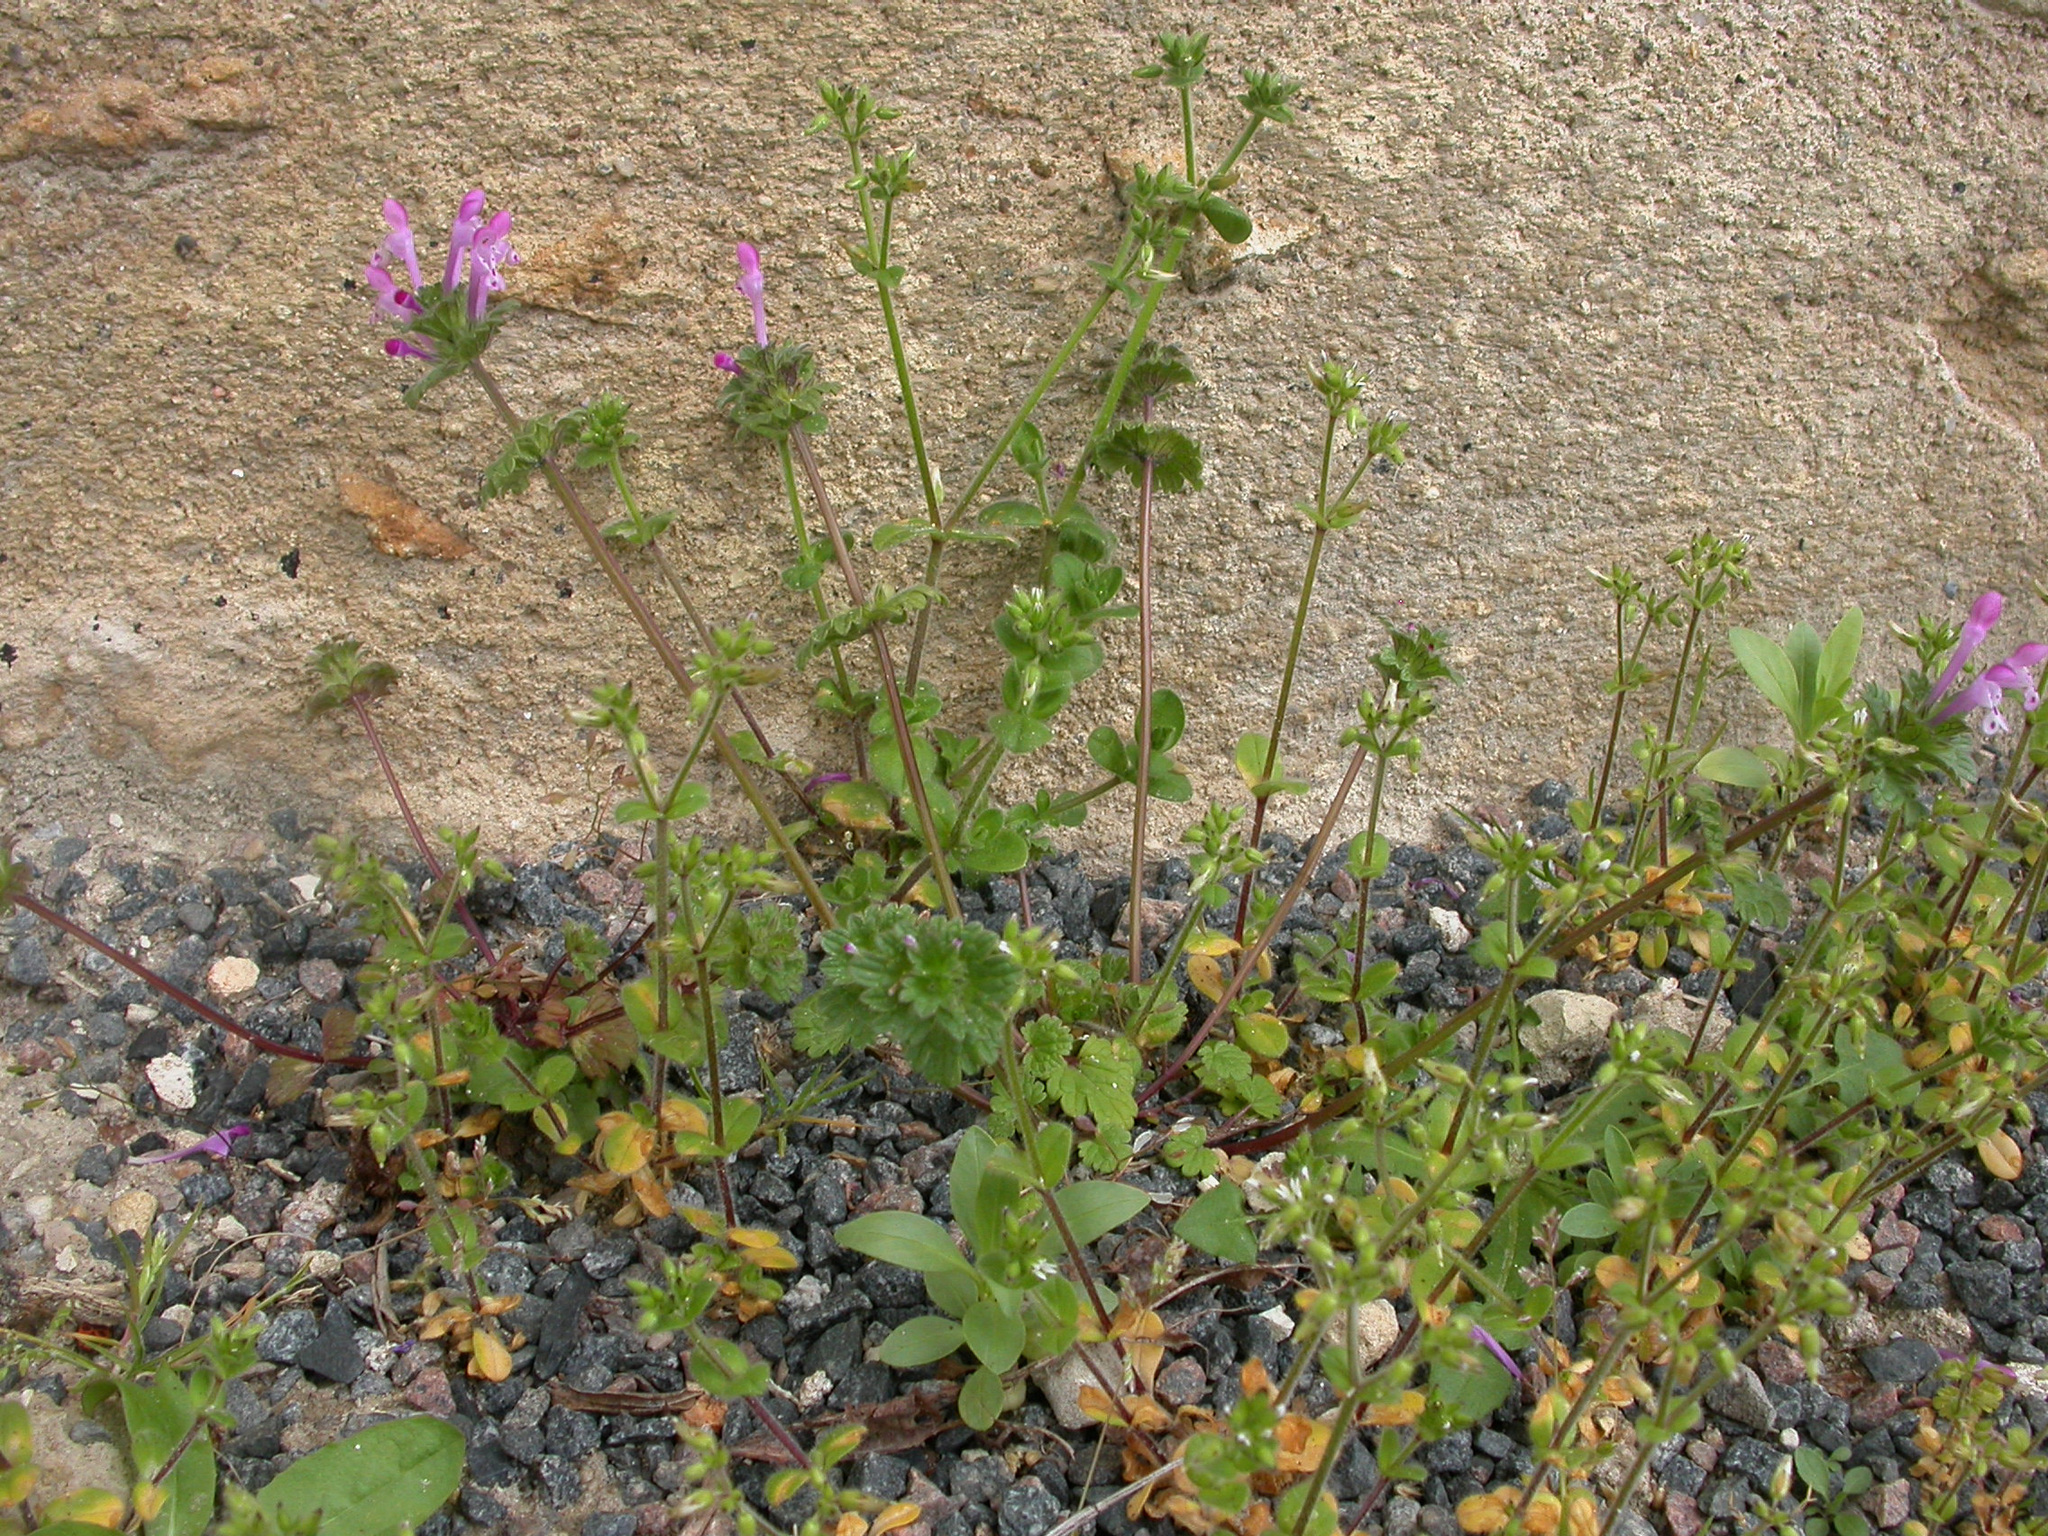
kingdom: Plantae
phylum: Tracheophyta
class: Magnoliopsida
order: Lamiales
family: Lamiaceae
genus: Lamium
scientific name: Lamium amplexicaule
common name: Henbit dead-nettle
